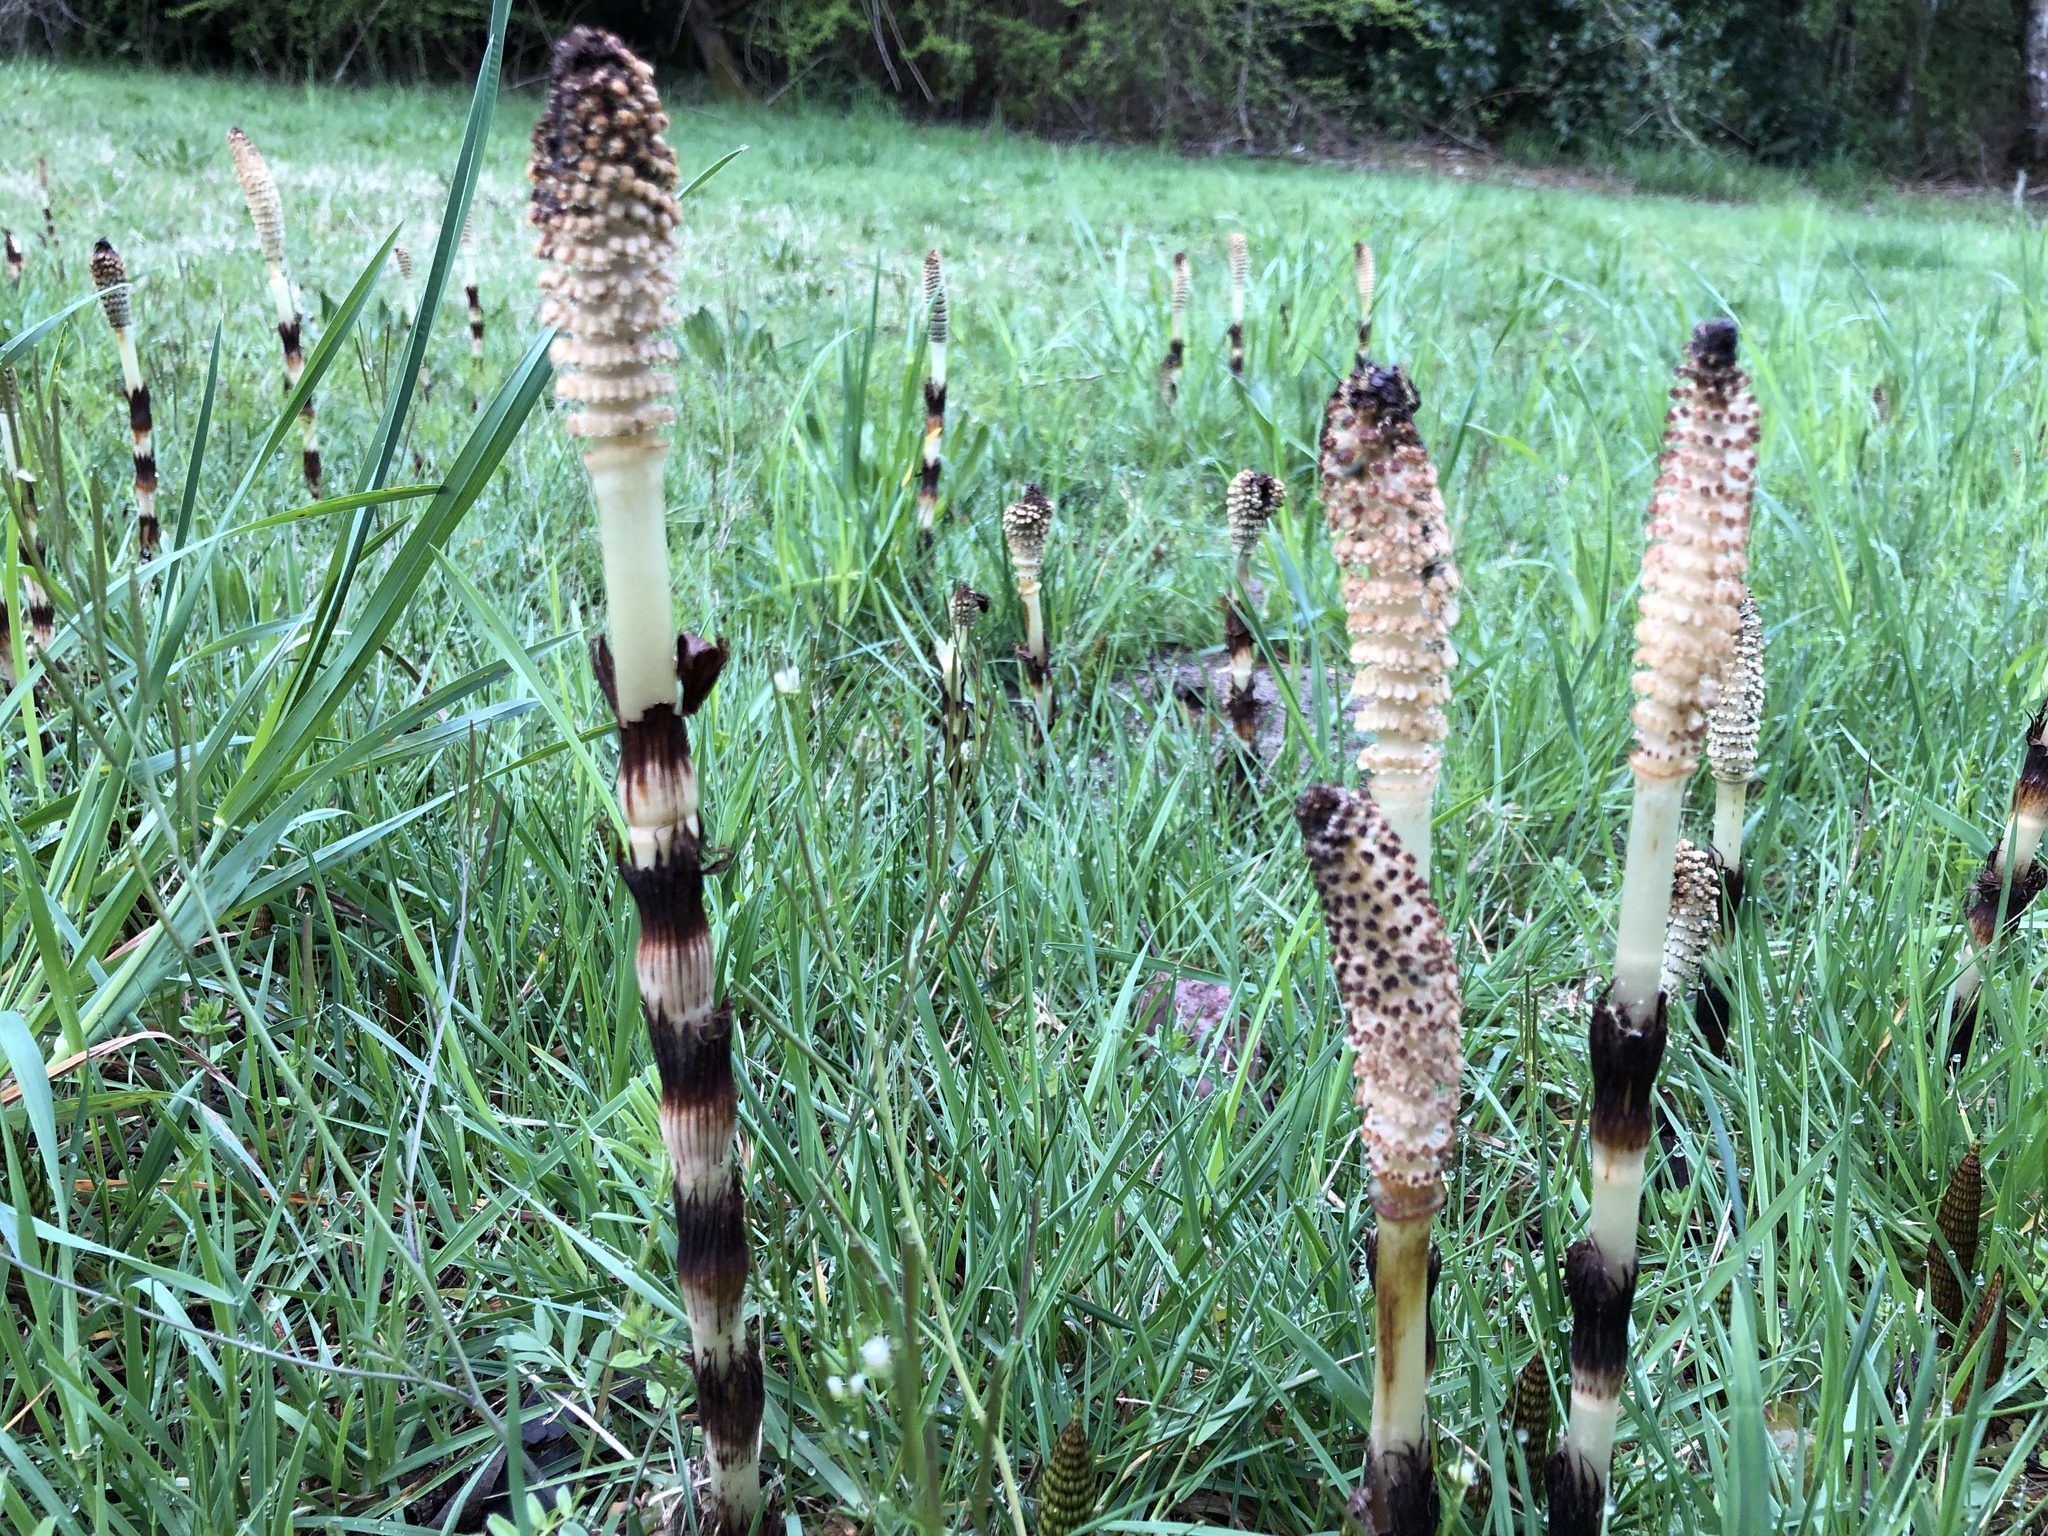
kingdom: Plantae
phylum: Tracheophyta
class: Polypodiopsida
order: Equisetales
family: Equisetaceae
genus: Equisetum
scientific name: Equisetum telmateia
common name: Great horsetail
